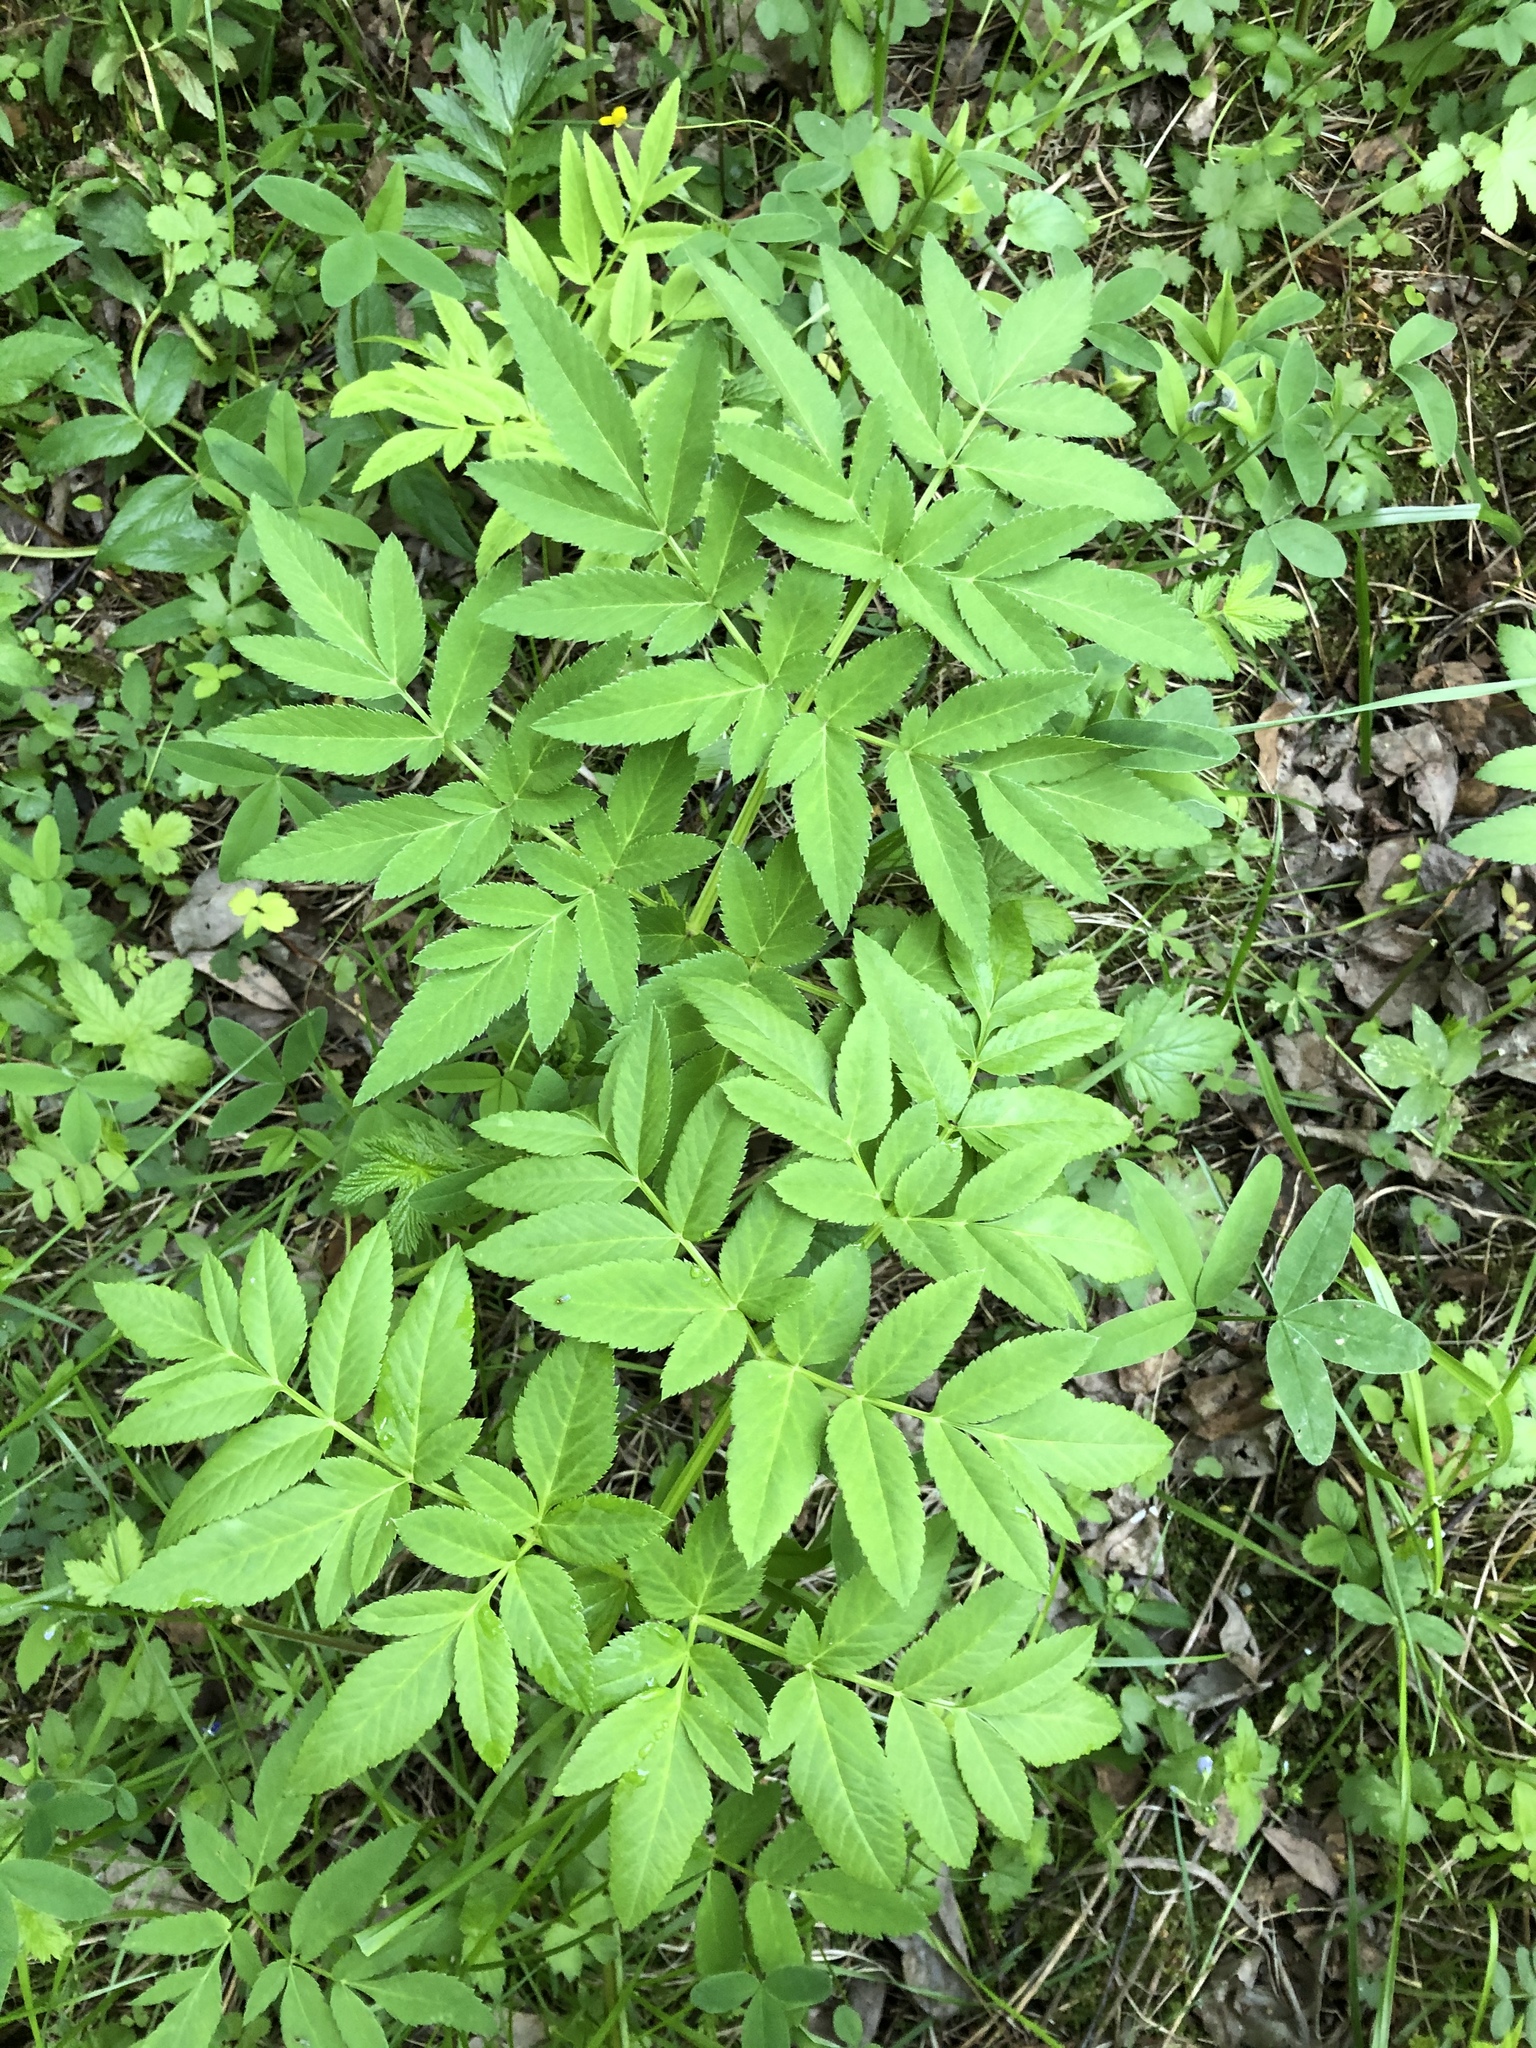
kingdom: Plantae
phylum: Tracheophyta
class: Magnoliopsida
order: Apiales
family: Apiaceae
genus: Angelica
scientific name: Angelica sylvestris
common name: Wild angelica
